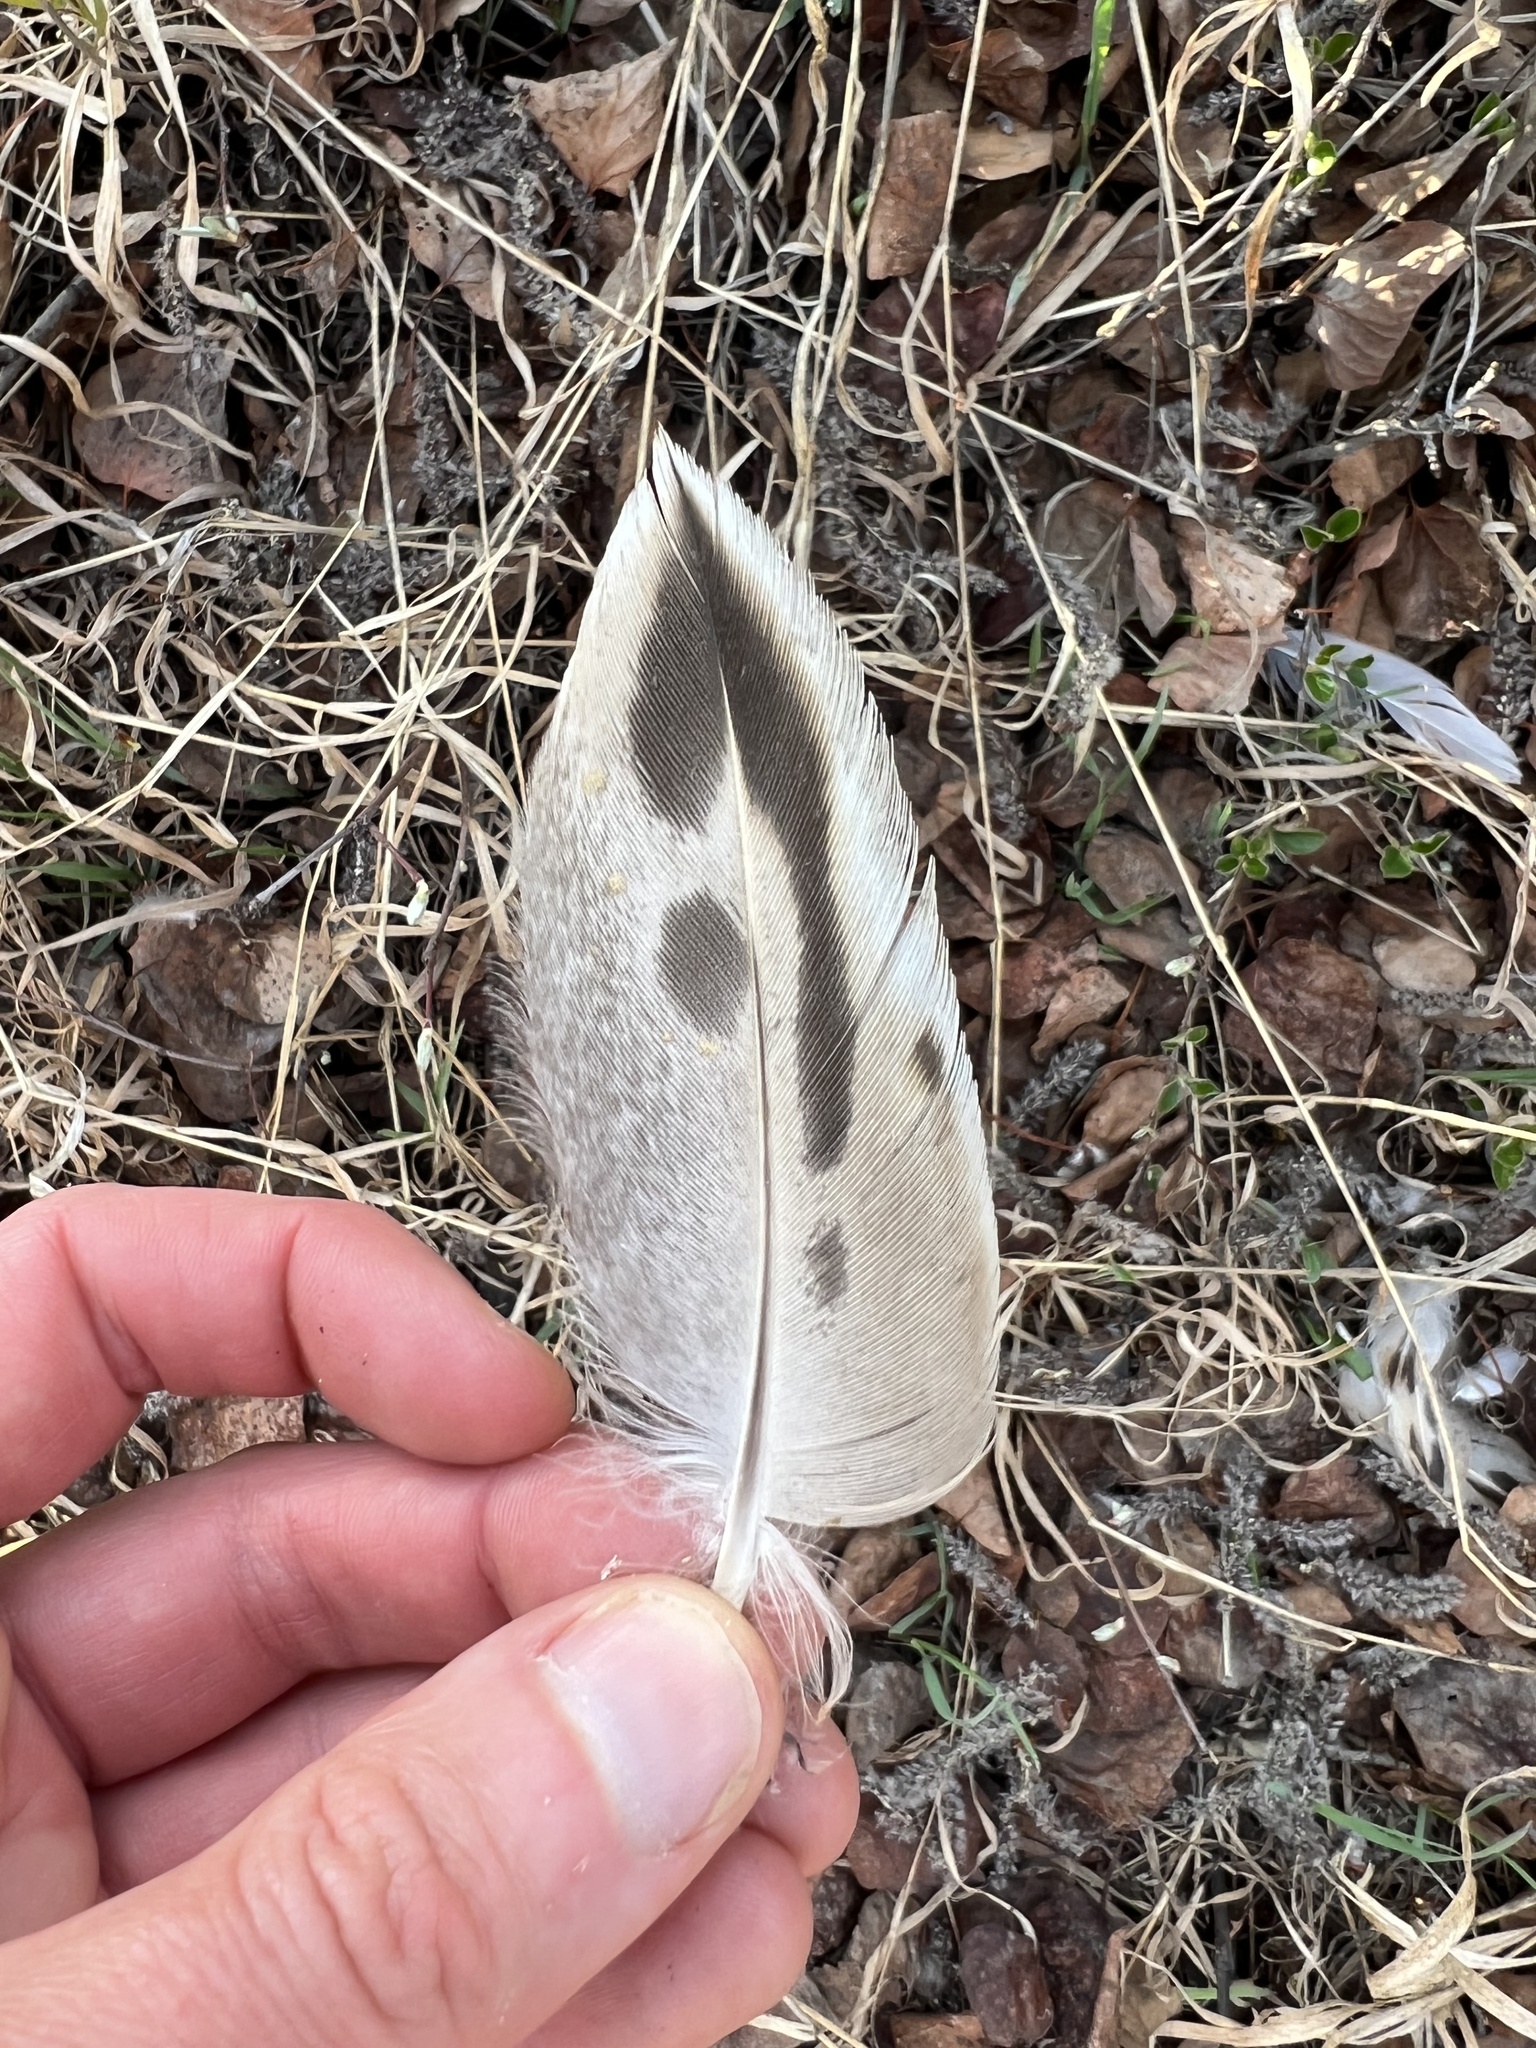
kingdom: Animalia
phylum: Chordata
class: Aves
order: Anseriformes
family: Anatidae
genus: Anas
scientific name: Anas platyrhynchos
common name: Mallard
